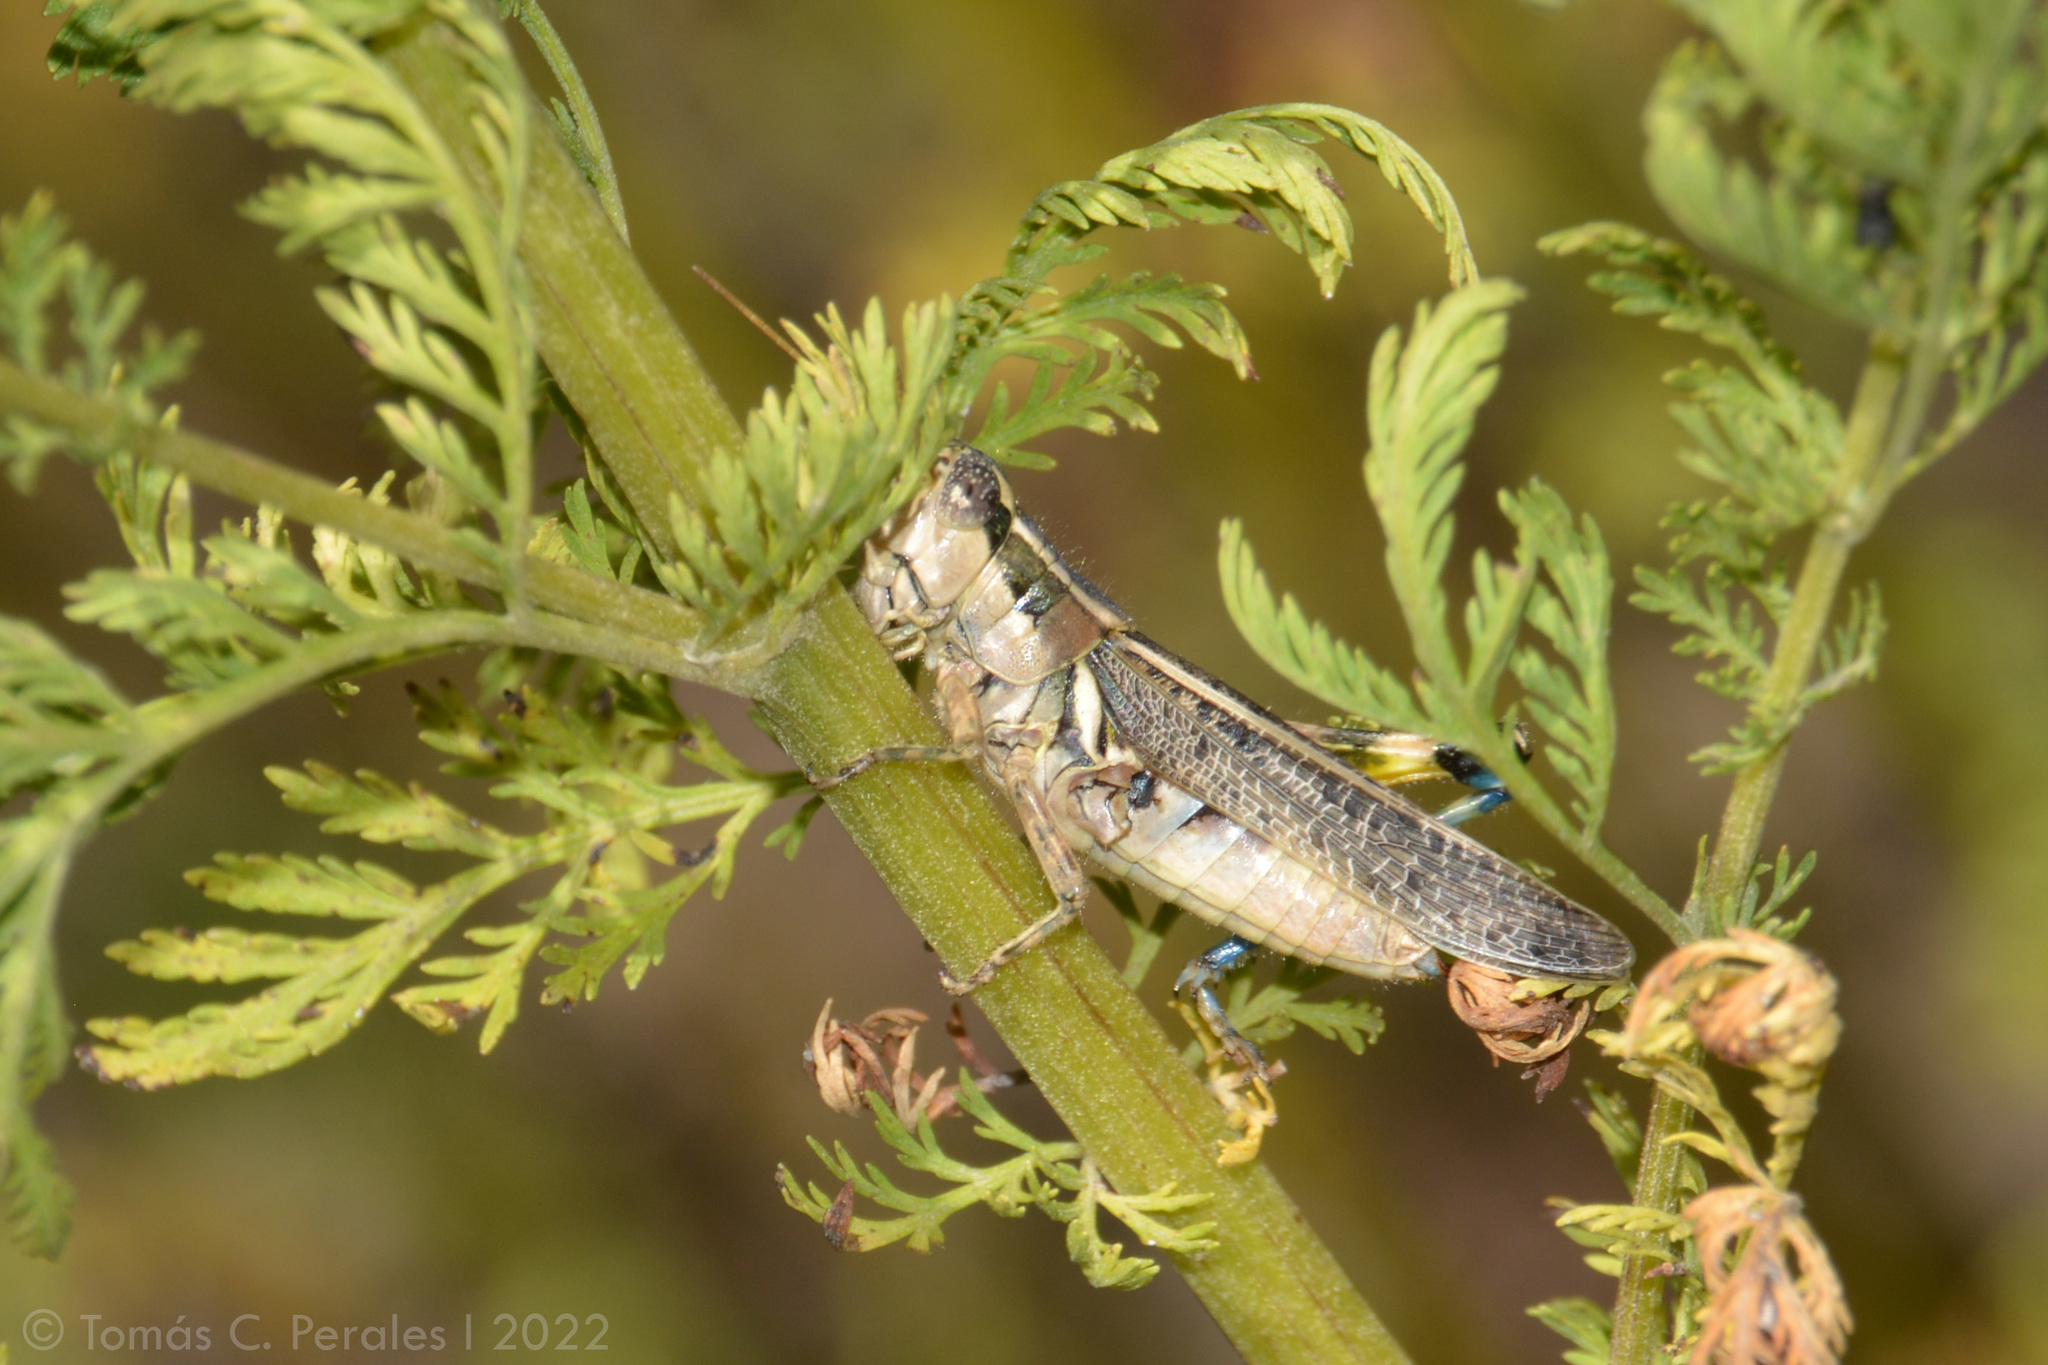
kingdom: Animalia
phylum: Arthropoda
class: Insecta
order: Orthoptera
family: Acrididae
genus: Dichroplus
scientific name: Dichroplus vittatus
